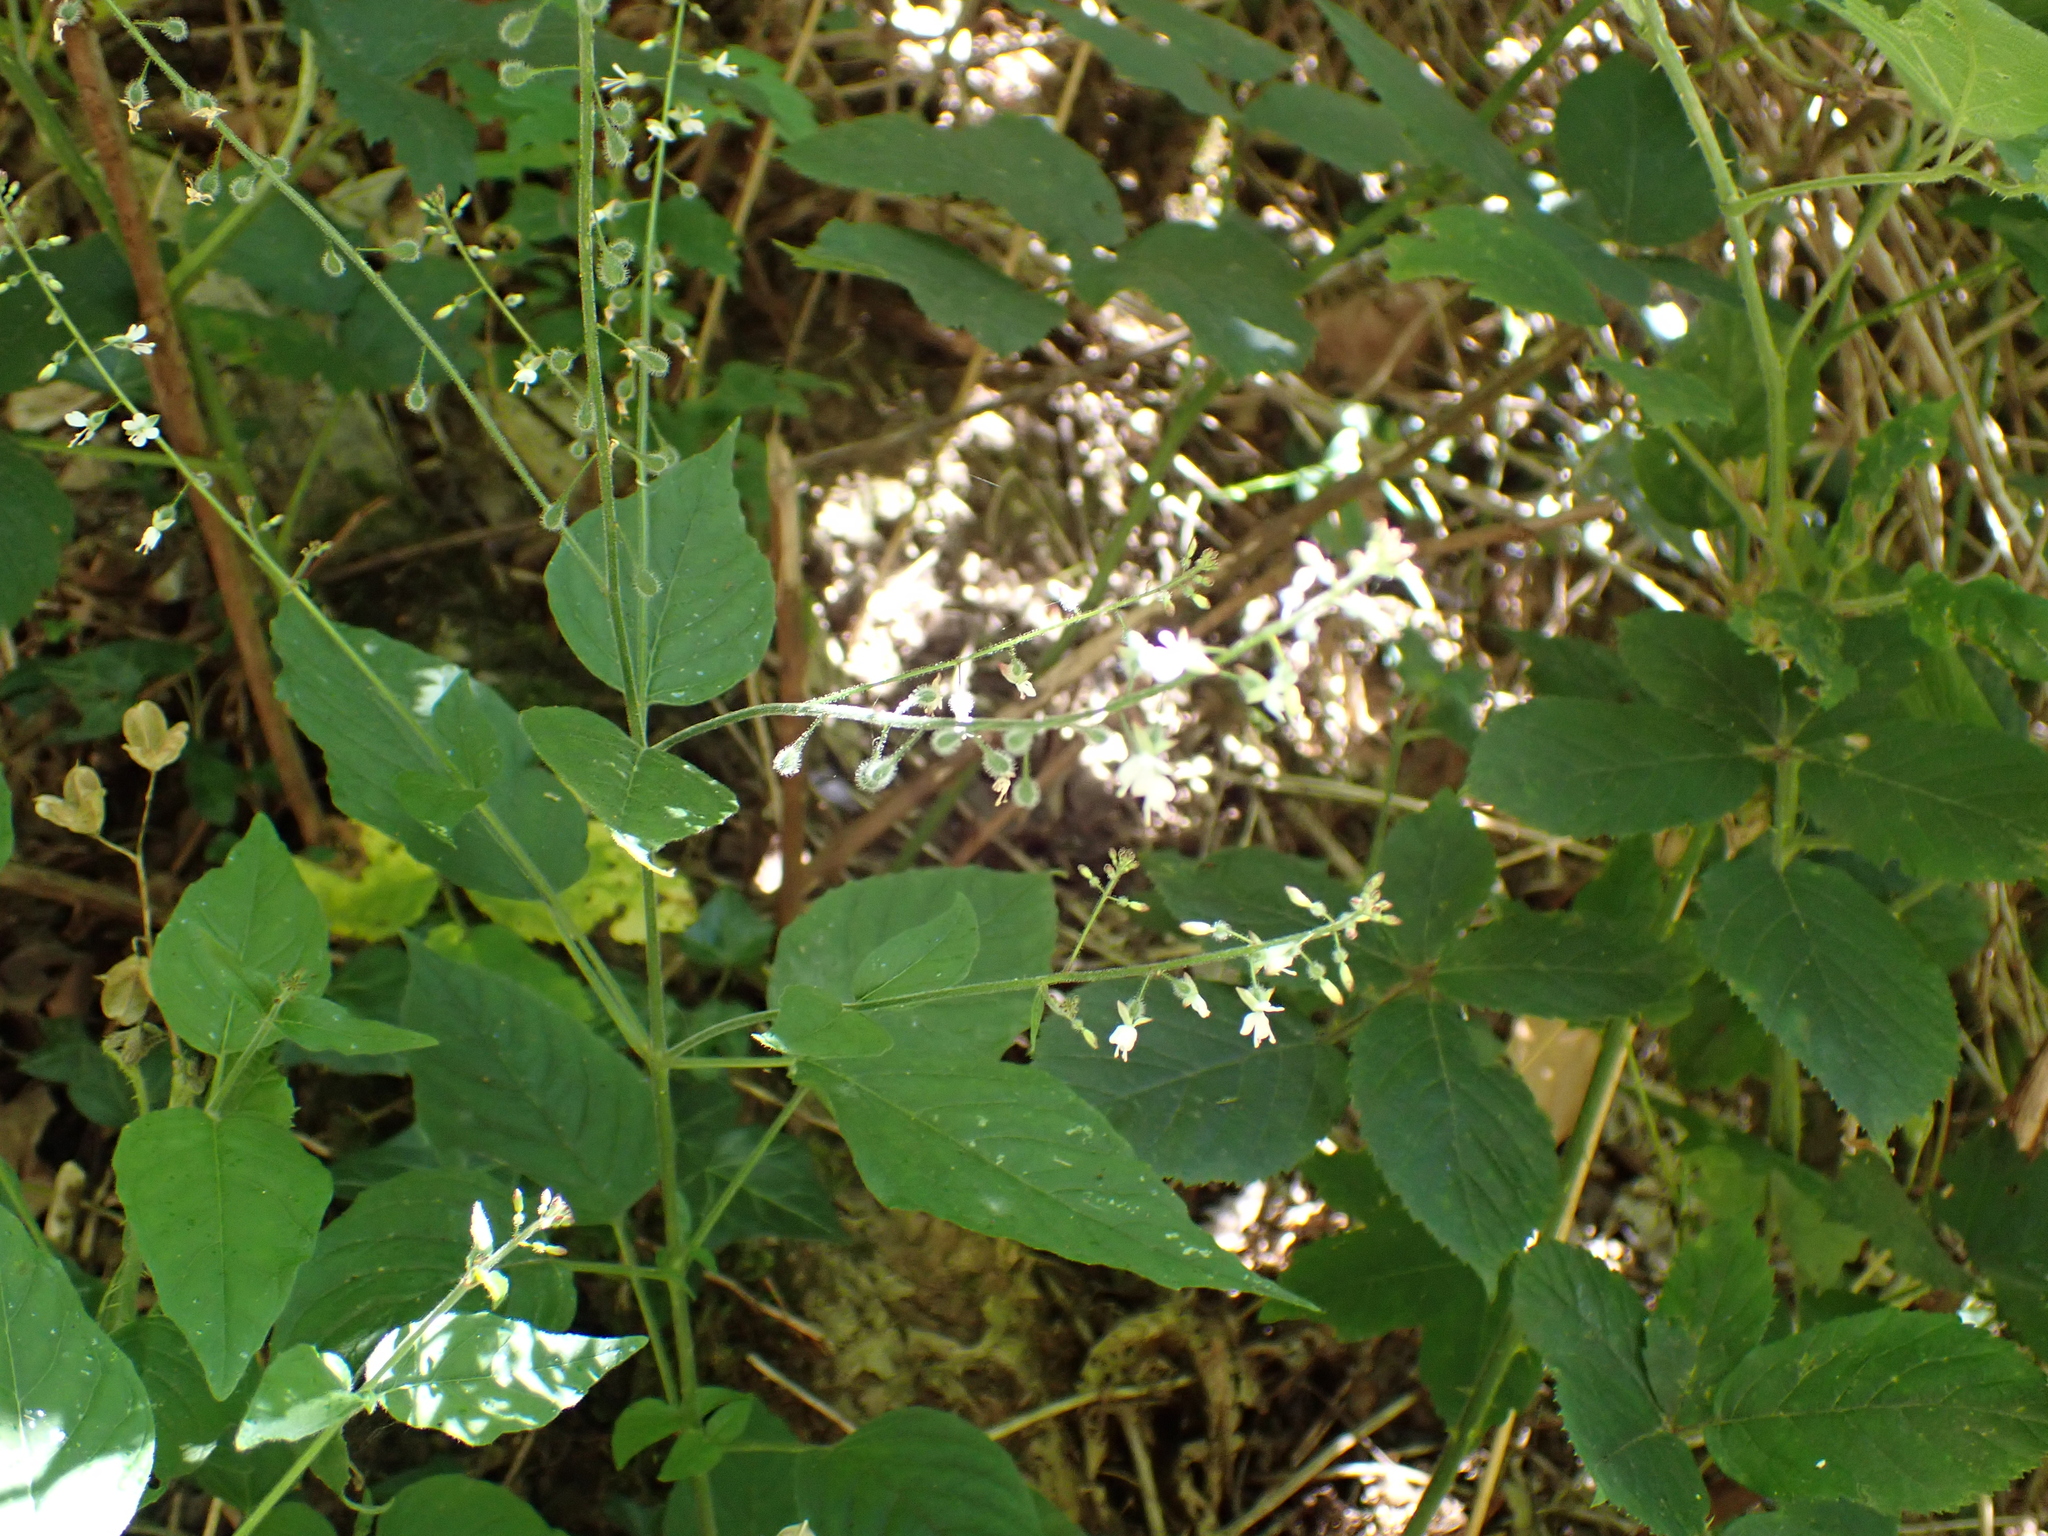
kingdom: Plantae
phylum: Tracheophyta
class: Magnoliopsida
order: Myrtales
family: Onagraceae
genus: Circaea
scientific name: Circaea lutetiana
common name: Enchanter's-nightshade
